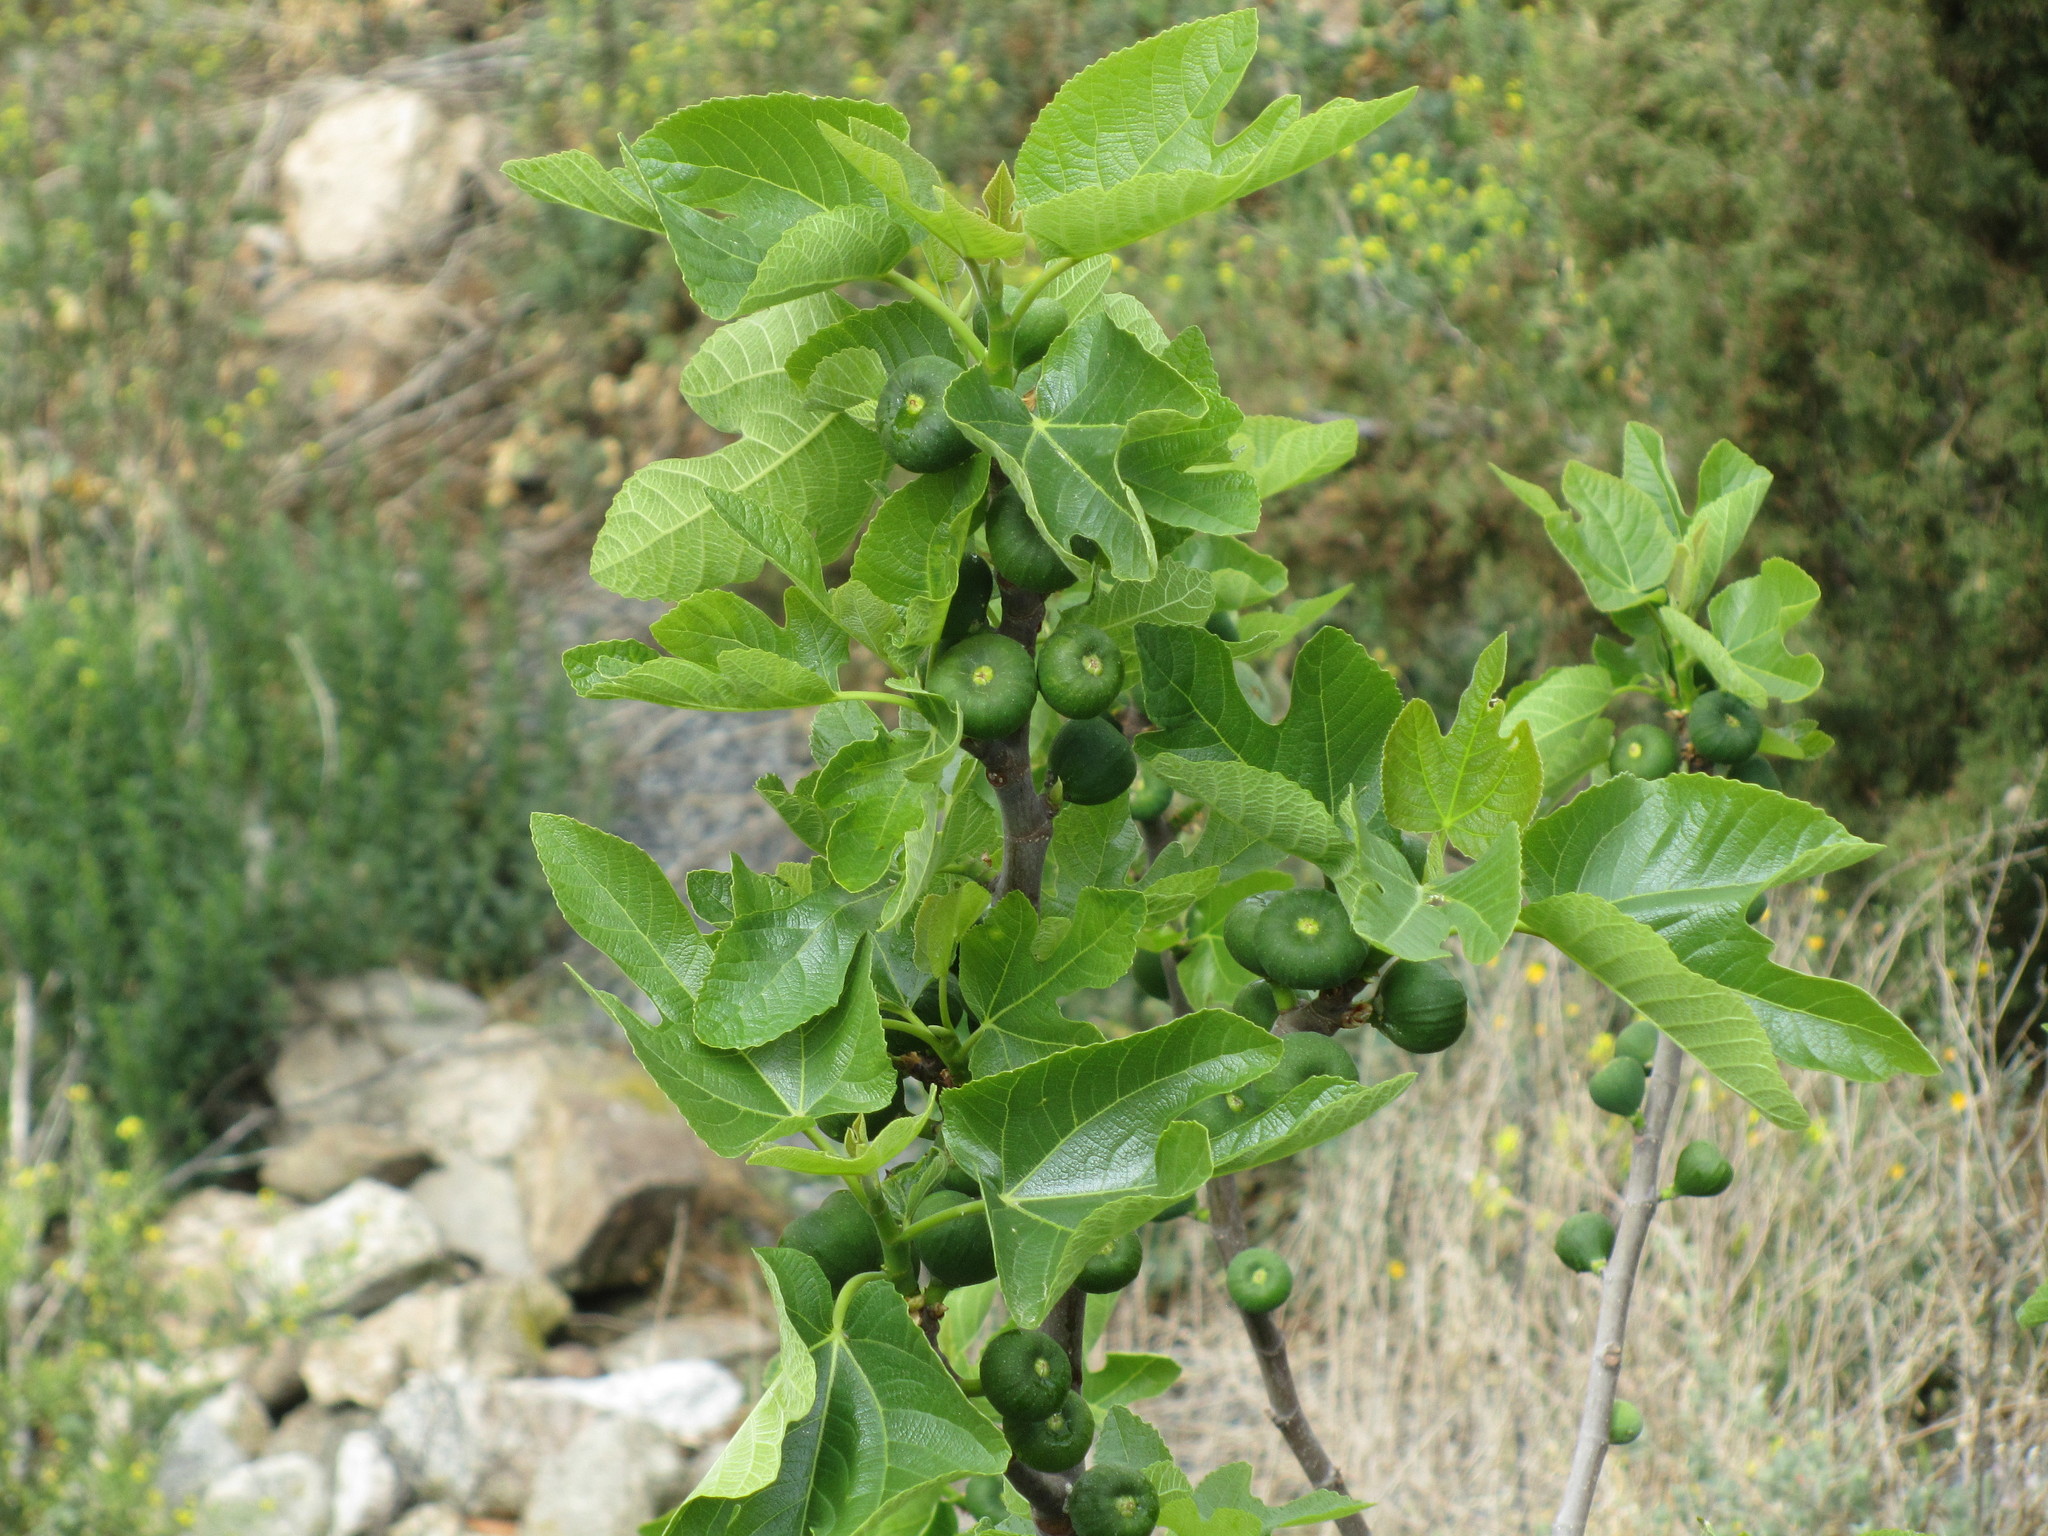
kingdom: Plantae
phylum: Tracheophyta
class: Magnoliopsida
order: Rosales
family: Moraceae
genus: Ficus
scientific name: Ficus carica
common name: Fig
